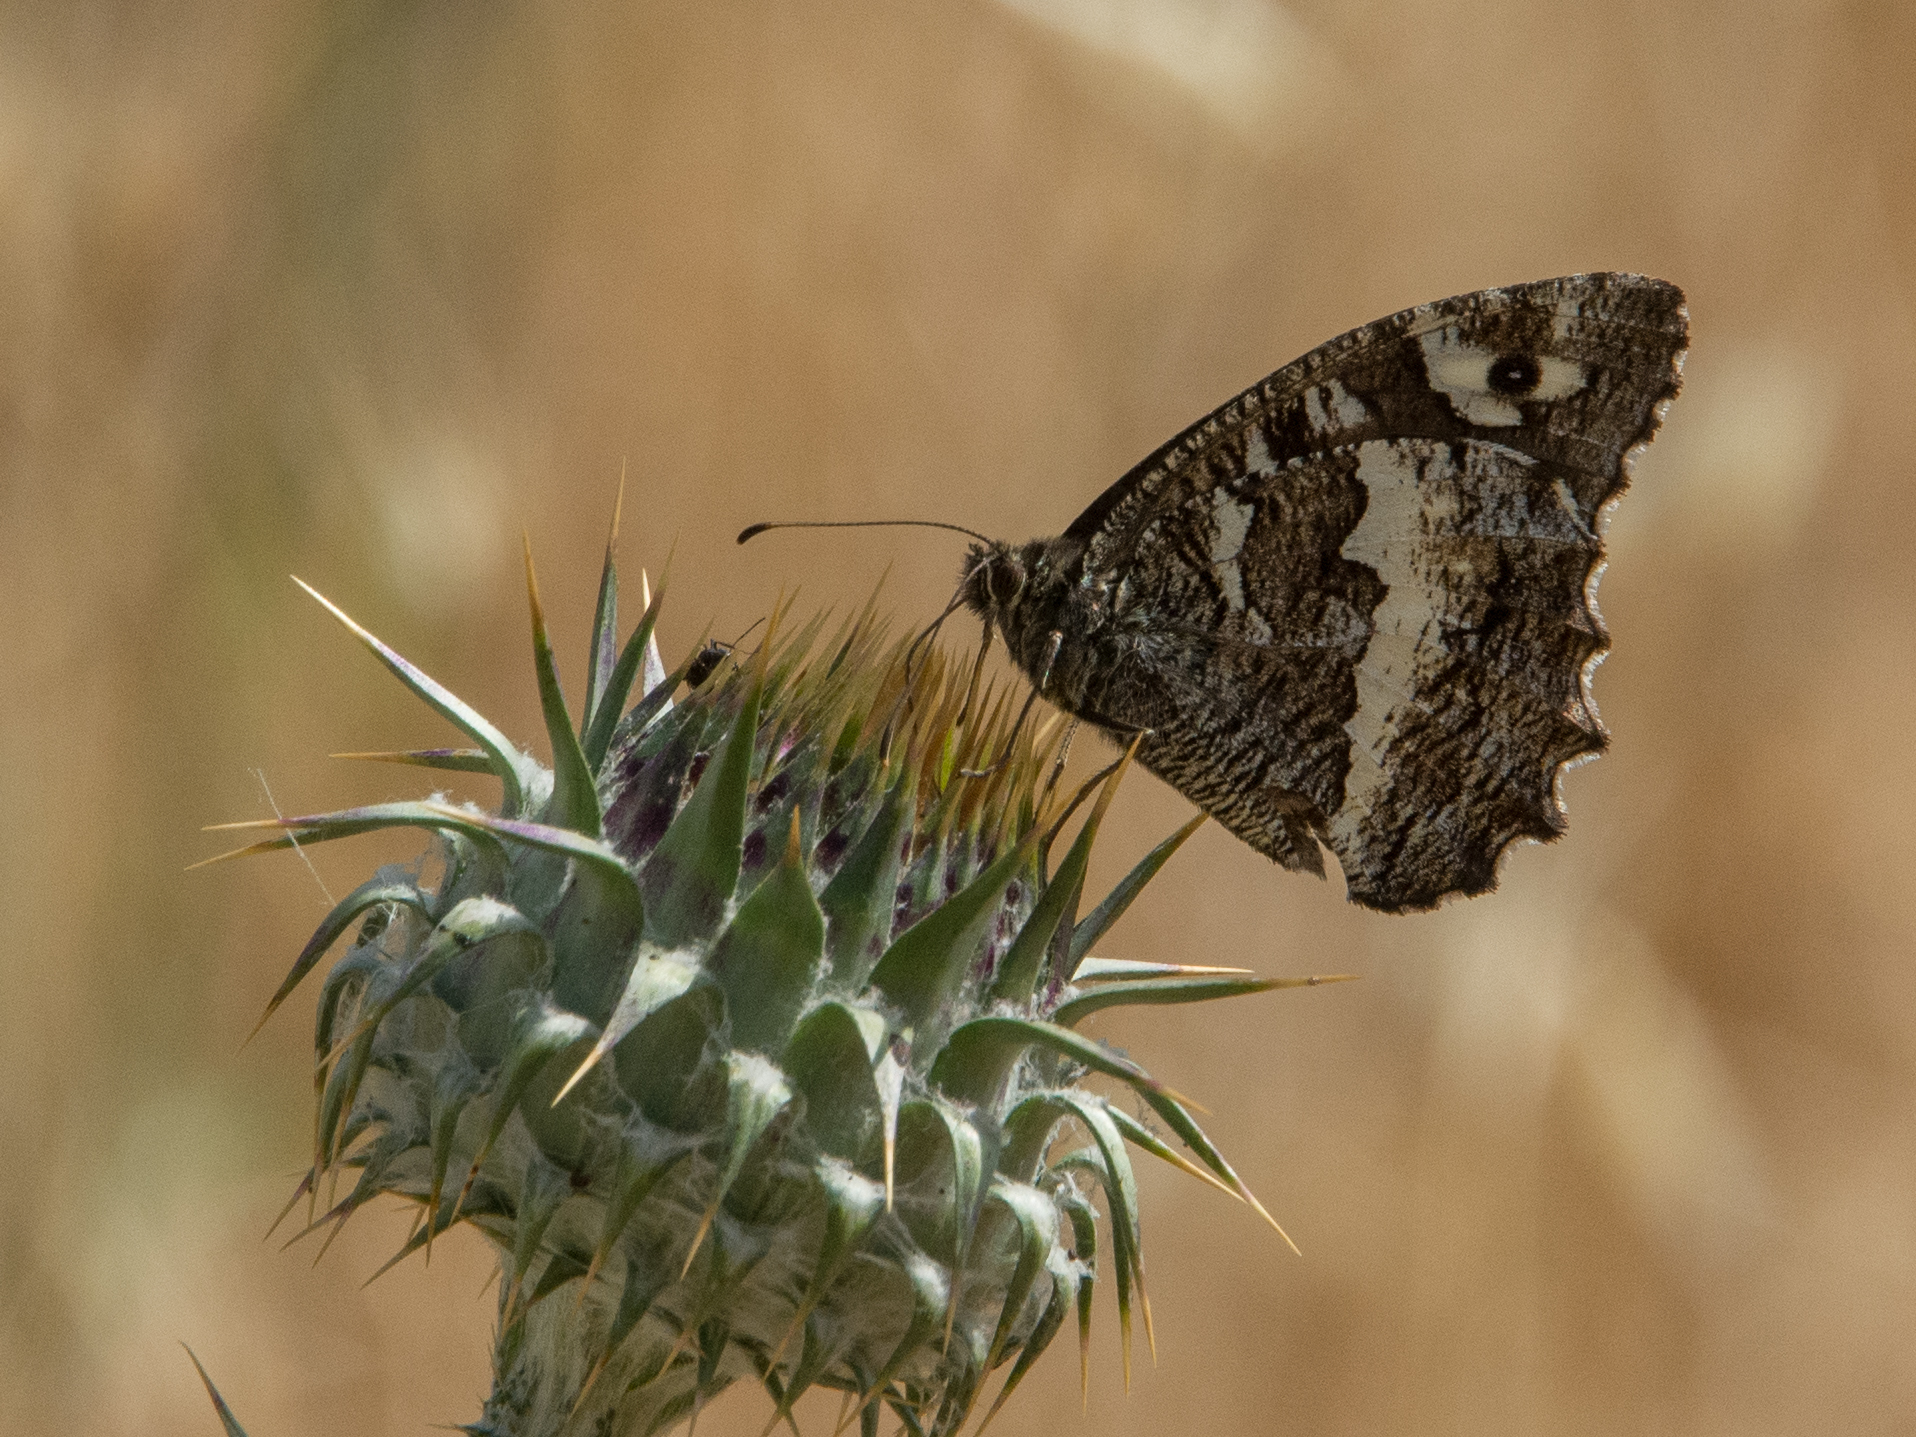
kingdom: Animalia
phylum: Arthropoda
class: Insecta
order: Lepidoptera
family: Lycaenidae
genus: Loweia
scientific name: Loweia tityrus
